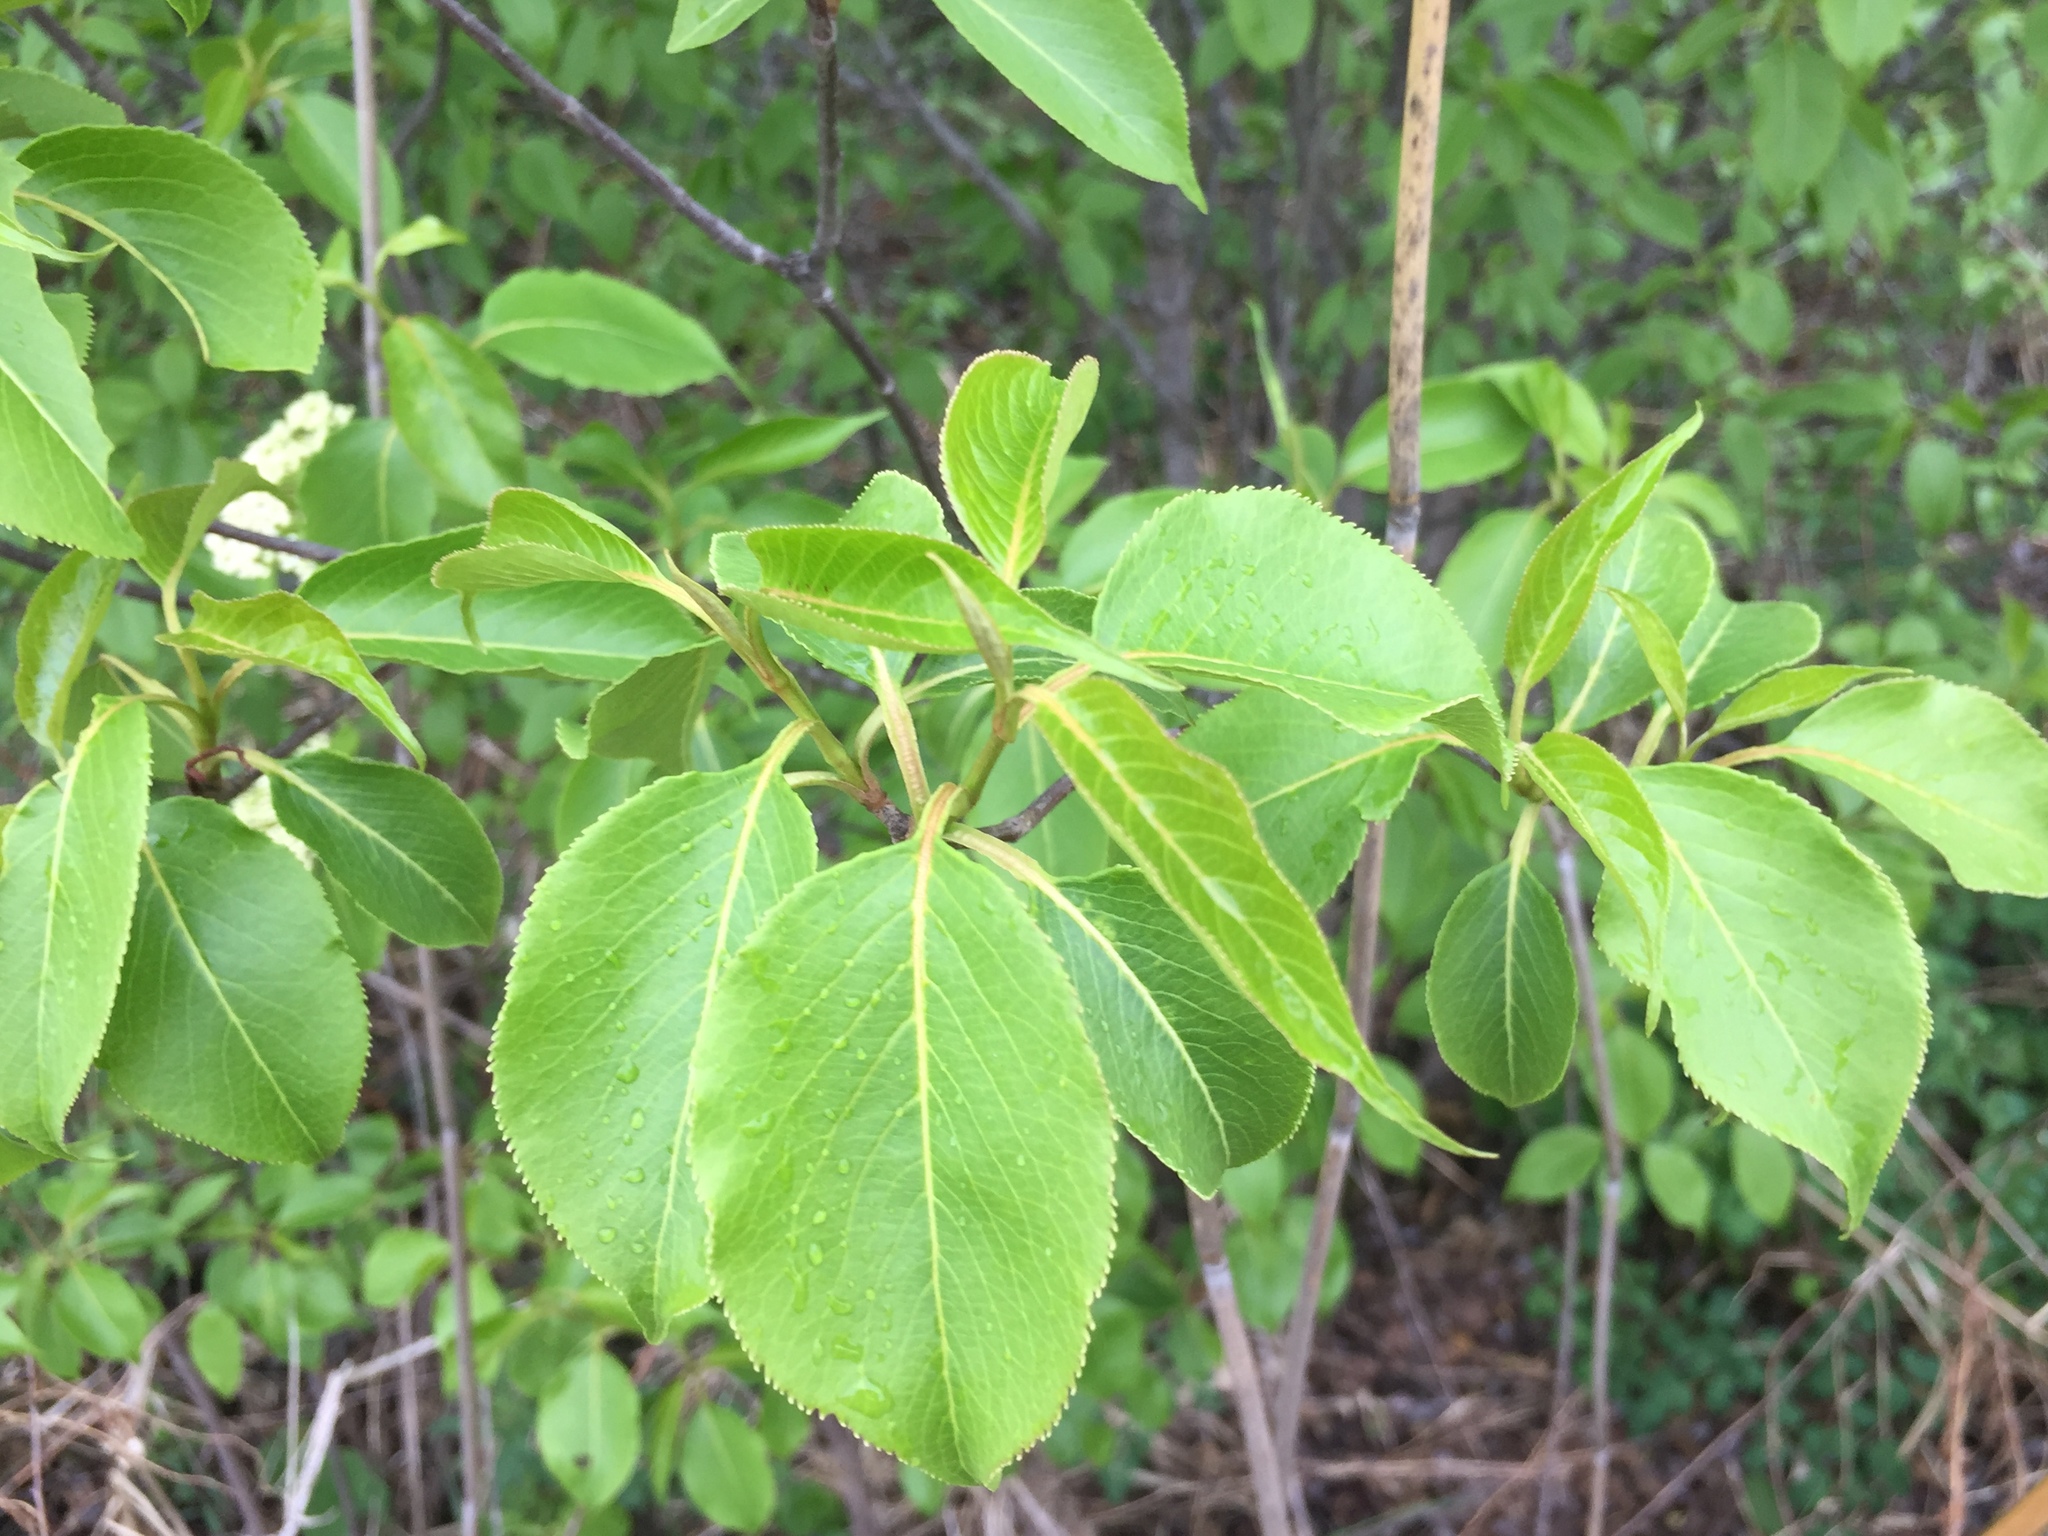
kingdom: Plantae
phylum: Tracheophyta
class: Magnoliopsida
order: Dipsacales
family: Viburnaceae
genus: Viburnum
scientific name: Viburnum lentago
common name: Black haw
